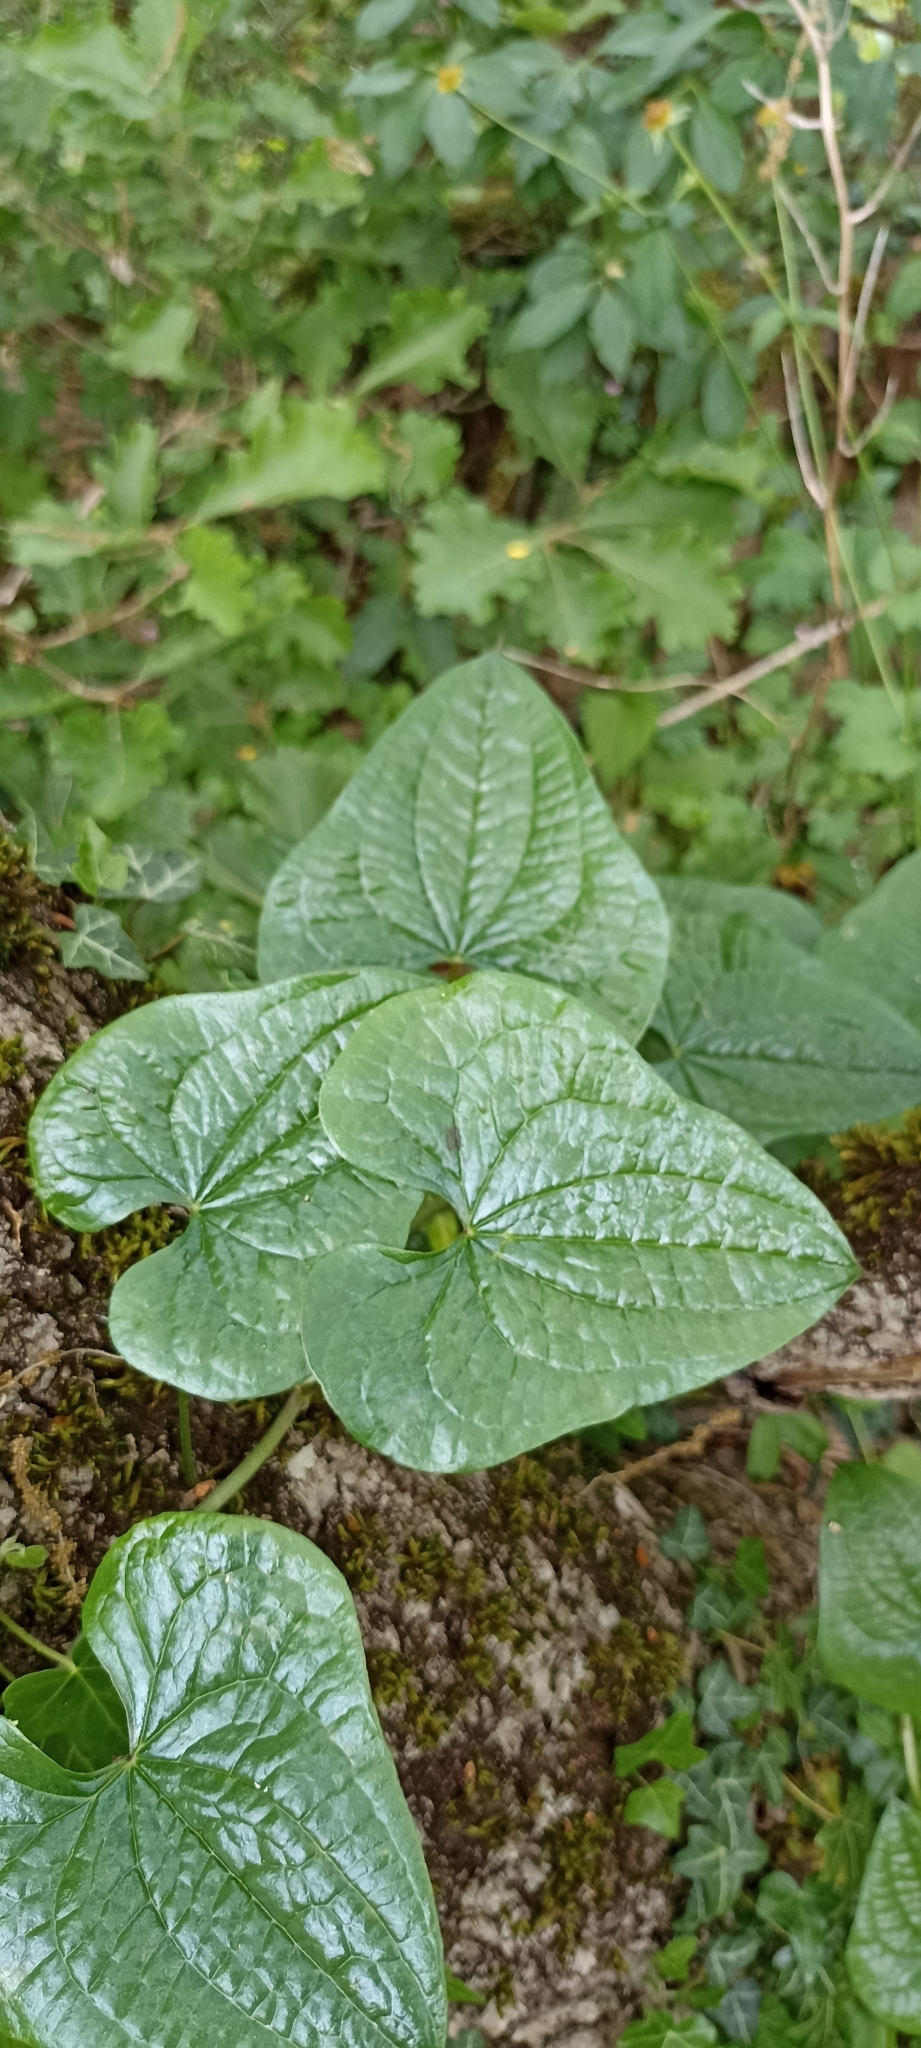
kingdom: Plantae
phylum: Tracheophyta
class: Liliopsida
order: Dioscoreales
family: Dioscoreaceae
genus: Dioscorea
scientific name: Dioscorea communis
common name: Black-bindweed
